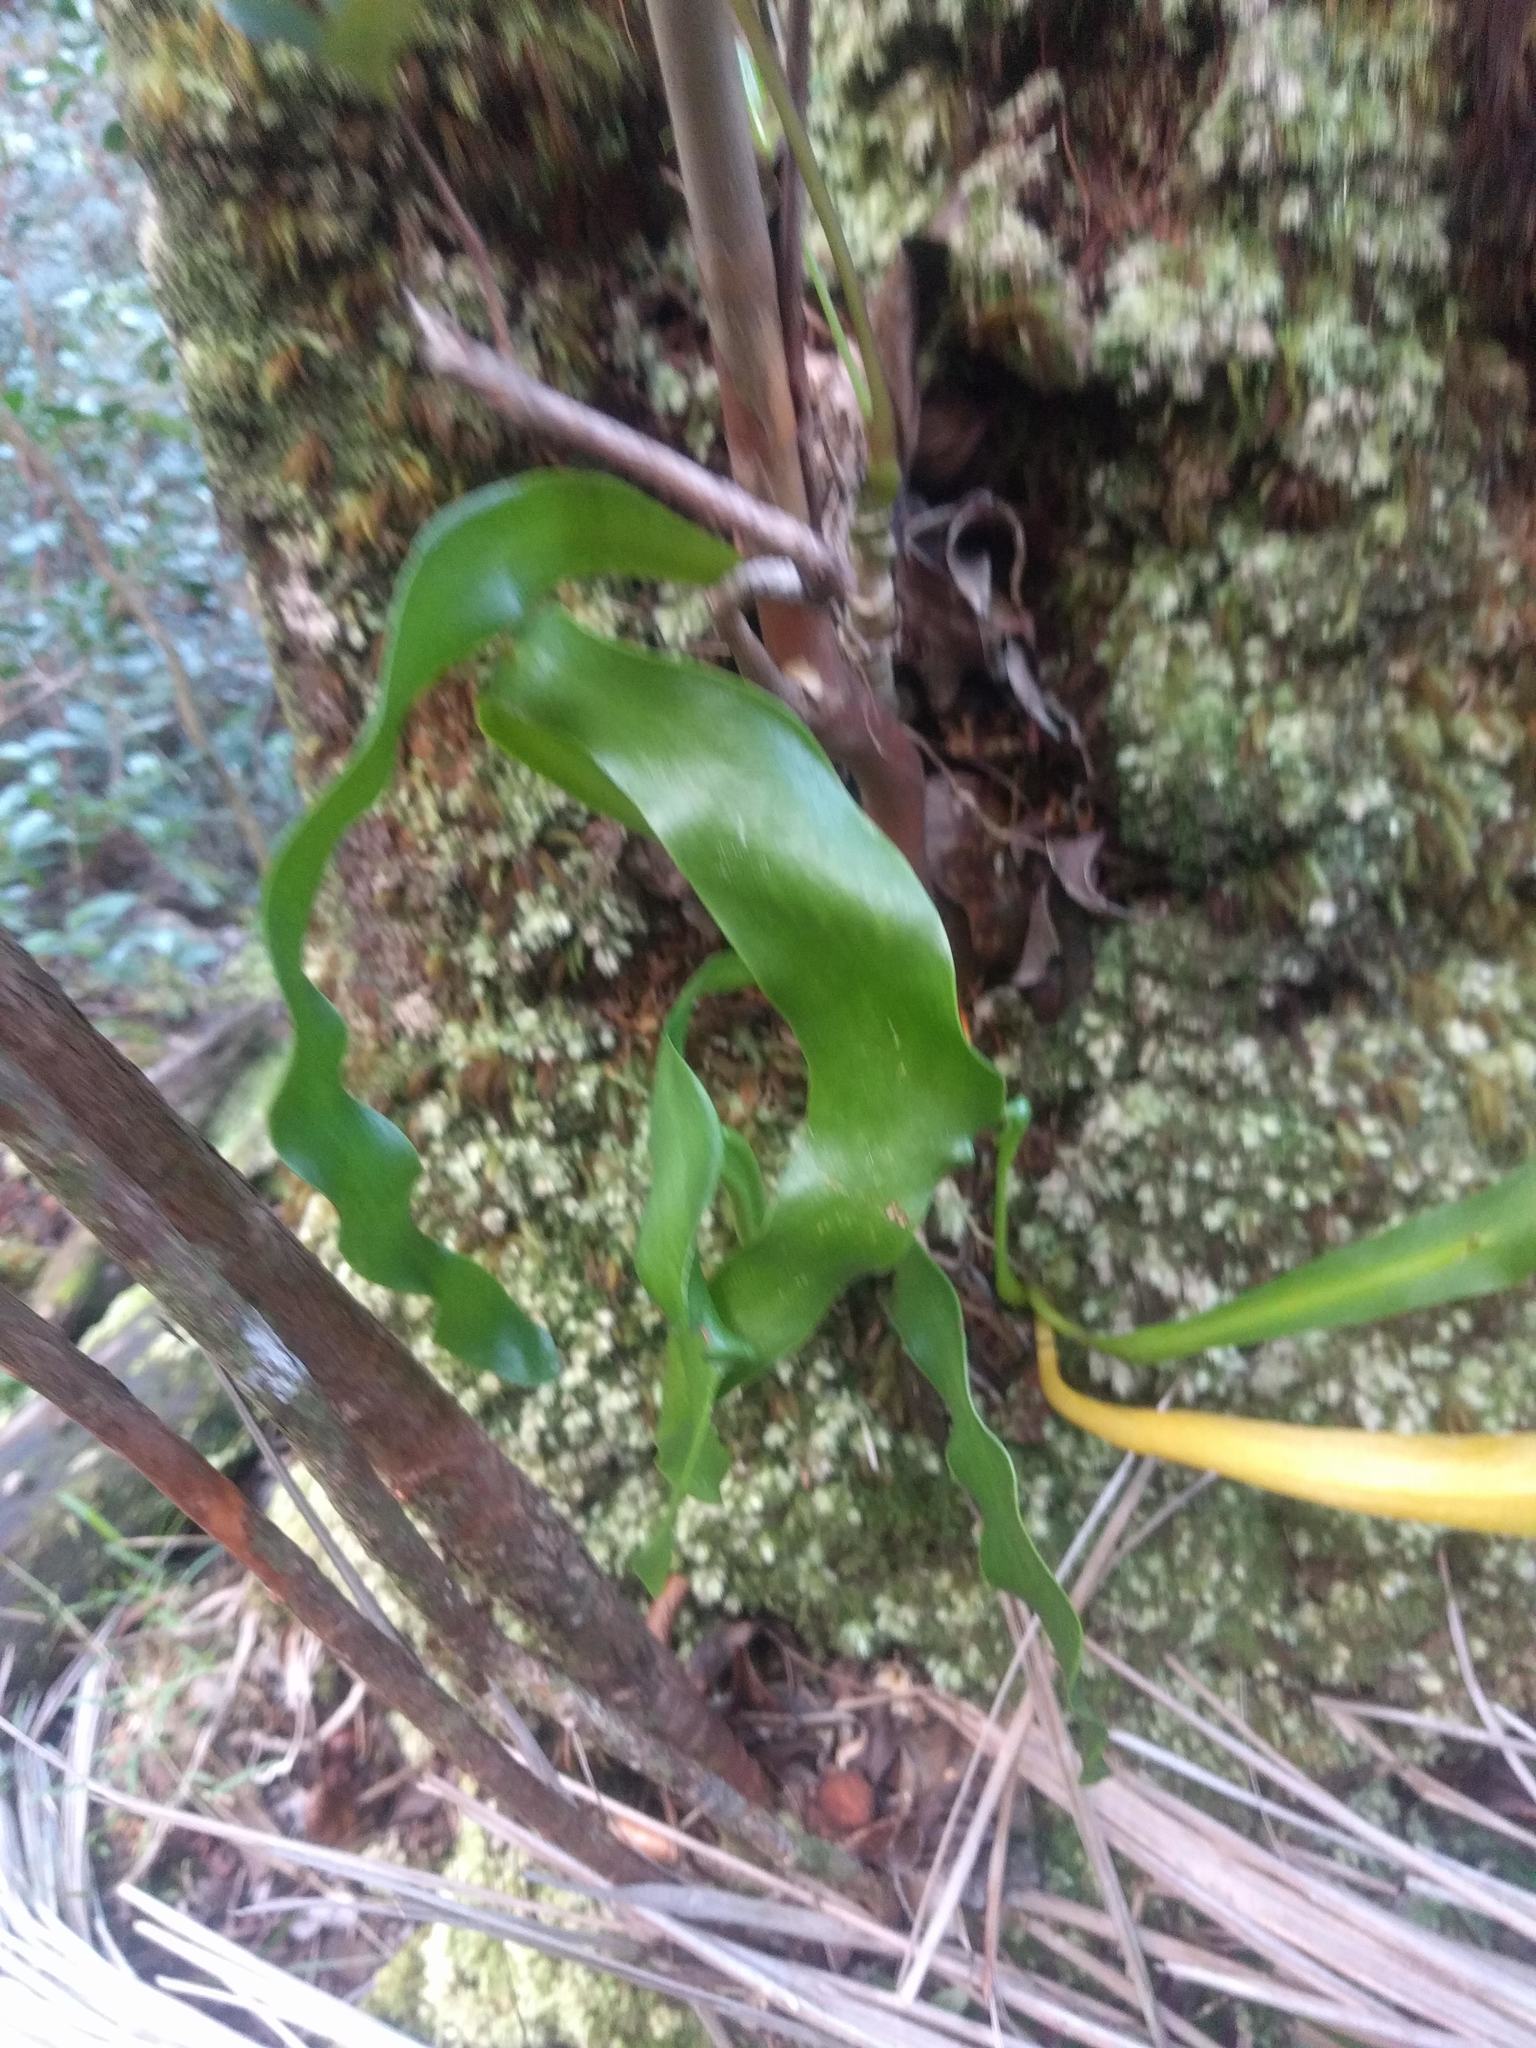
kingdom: Plantae
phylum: Tracheophyta
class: Polypodiopsida
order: Ophioglossales
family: Ophioglossaceae
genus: Ophioderma
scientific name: Ophioderma falcatum
